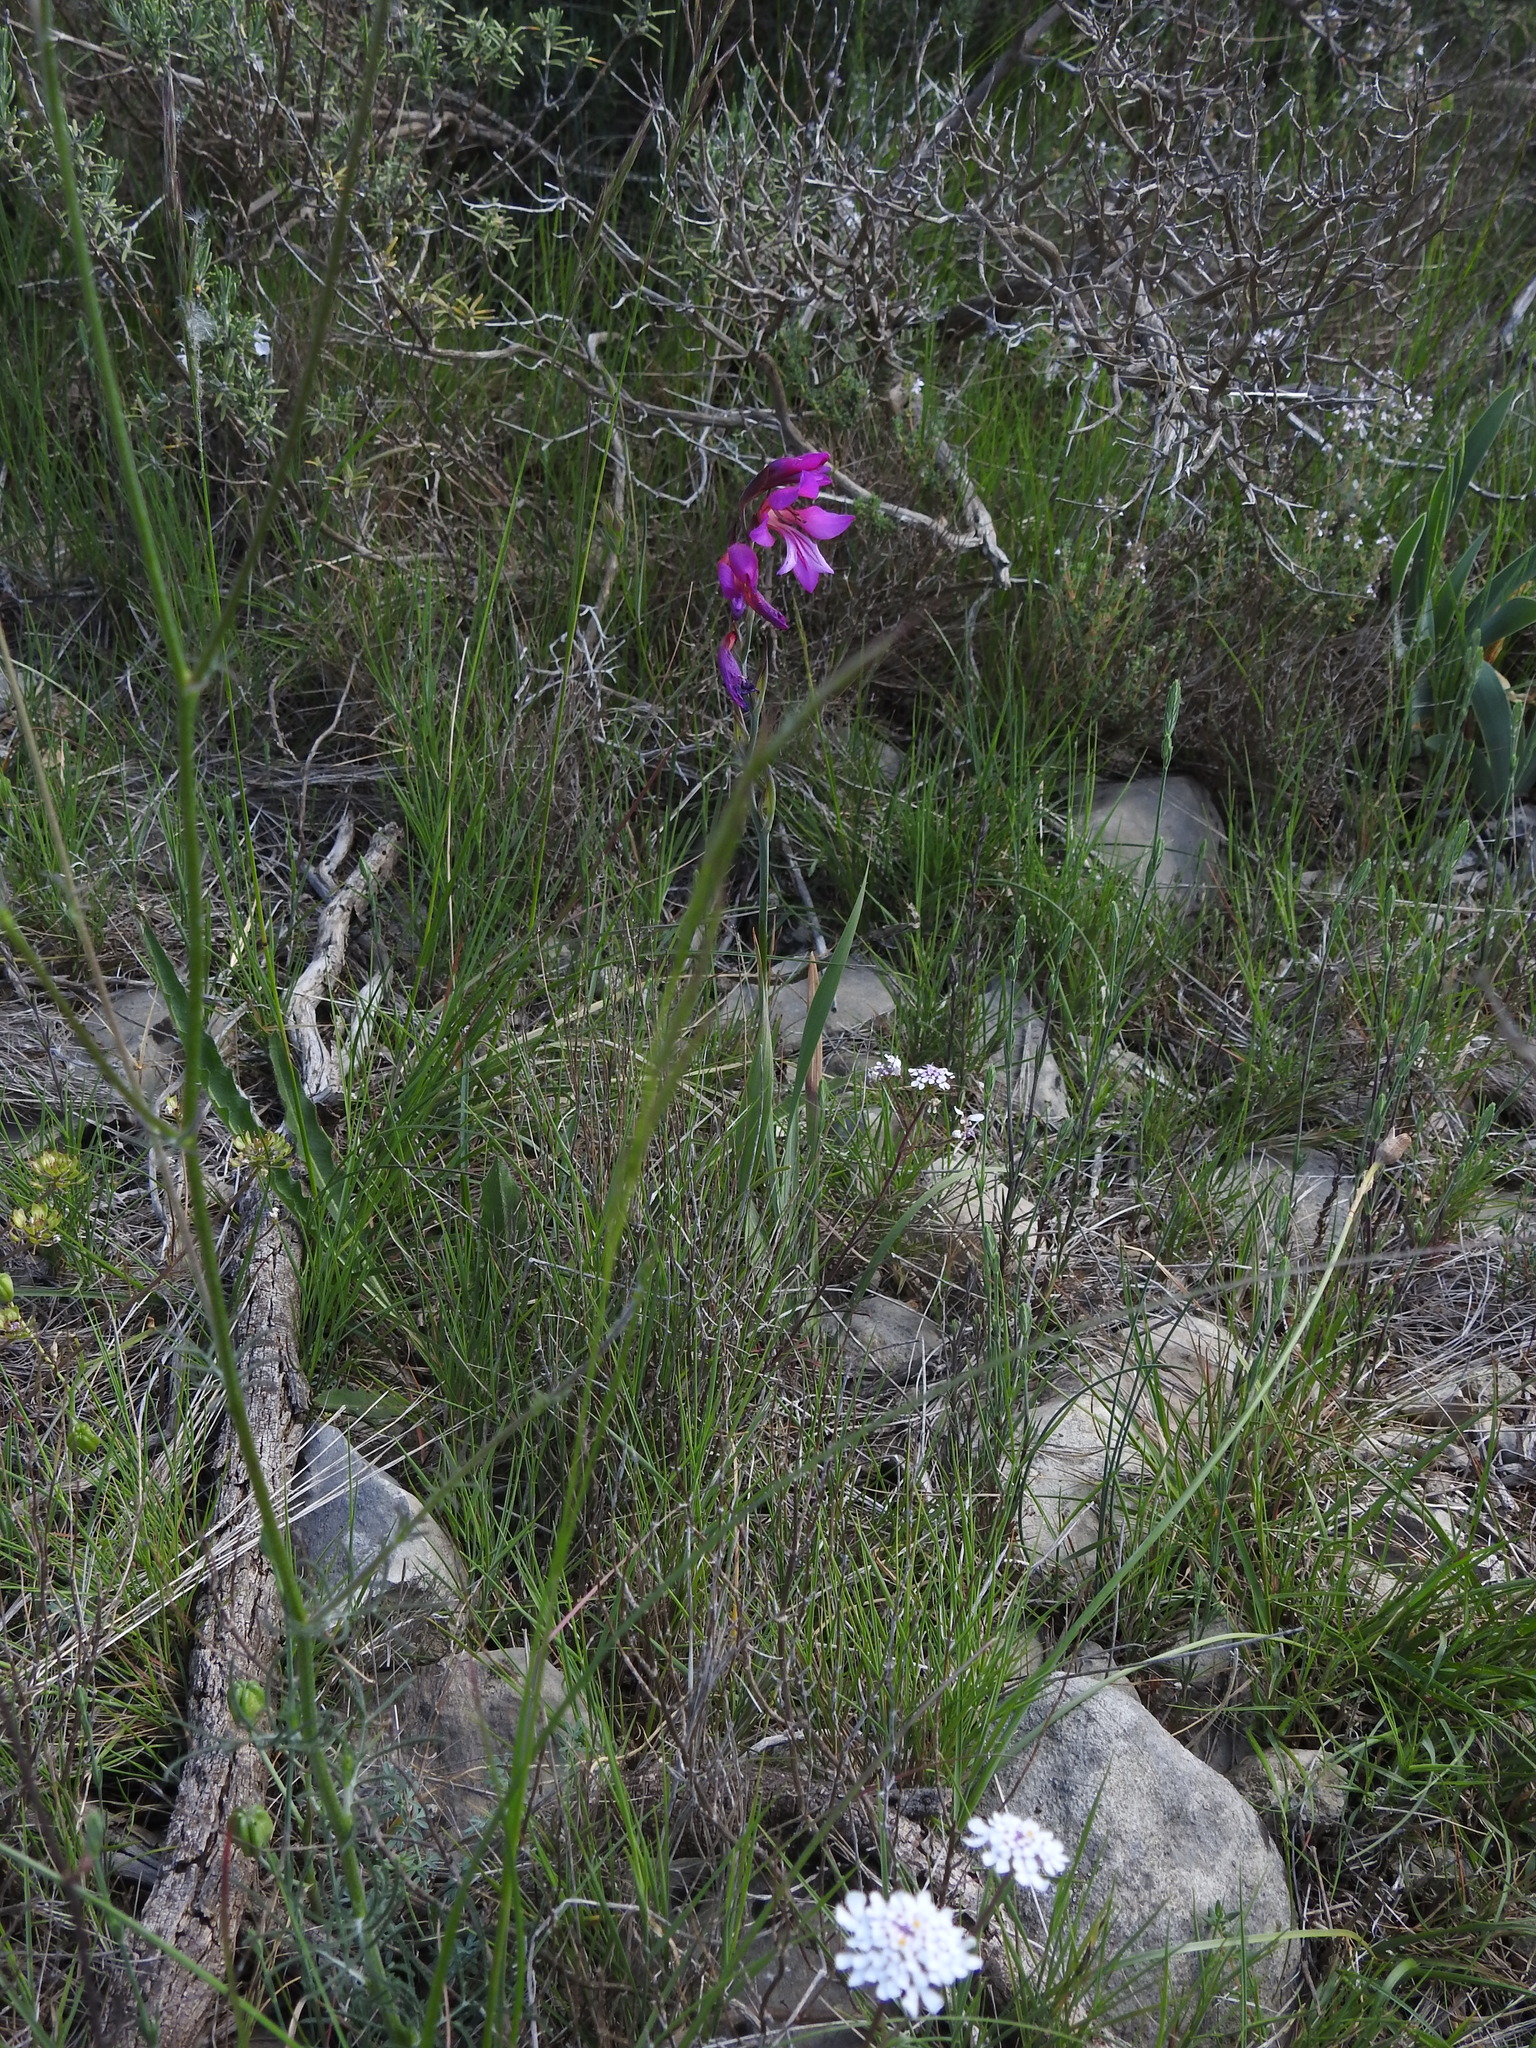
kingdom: Plantae
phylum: Tracheophyta
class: Liliopsida
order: Asparagales
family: Iridaceae
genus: Gladiolus
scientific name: Gladiolus dubius
